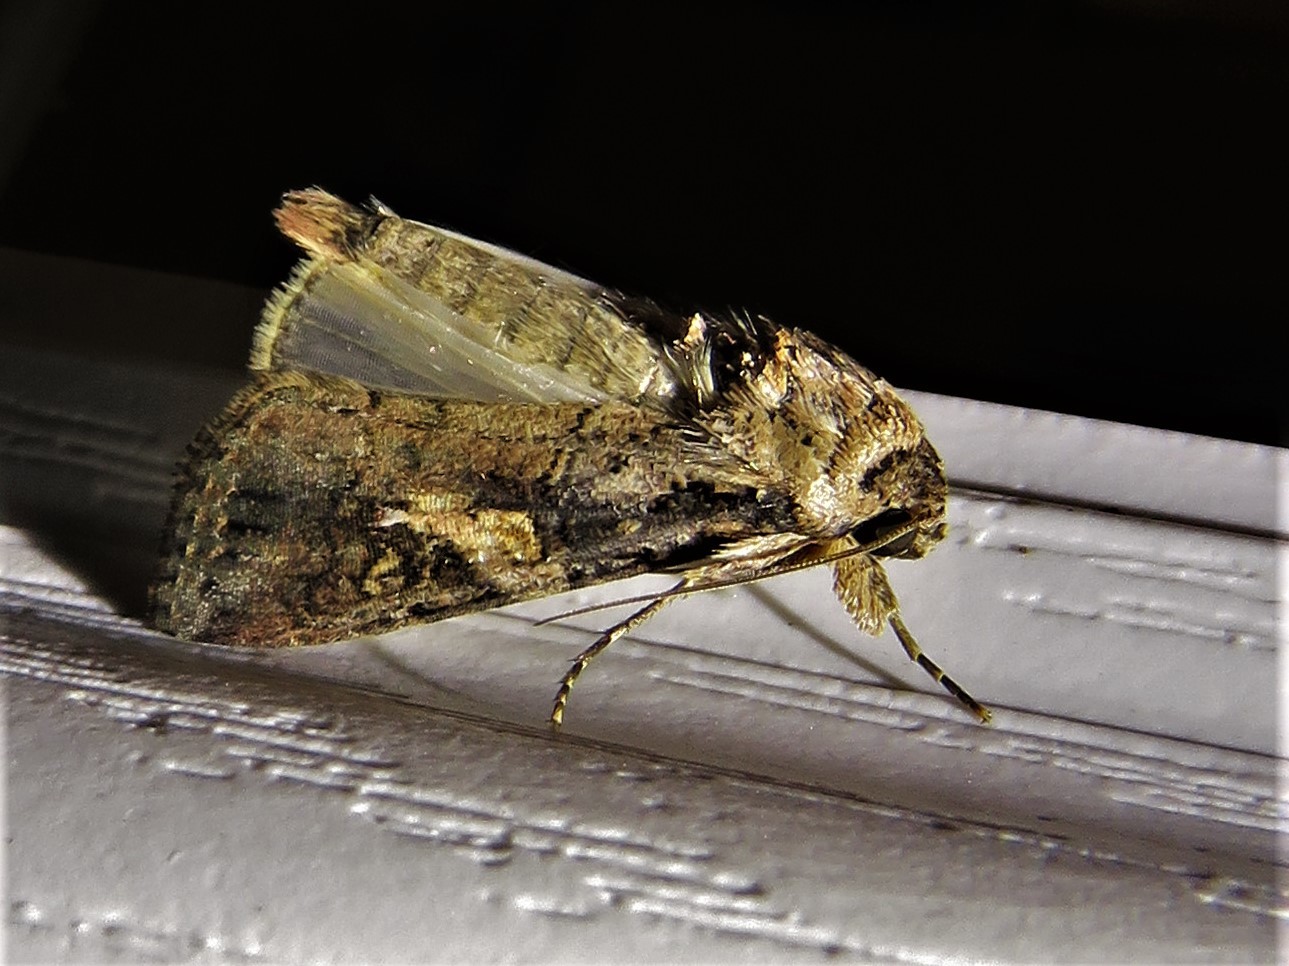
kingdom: Animalia
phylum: Arthropoda
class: Insecta
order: Lepidoptera
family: Noctuidae
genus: Spodoptera
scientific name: Spodoptera frugiperda
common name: Fall armyworm
